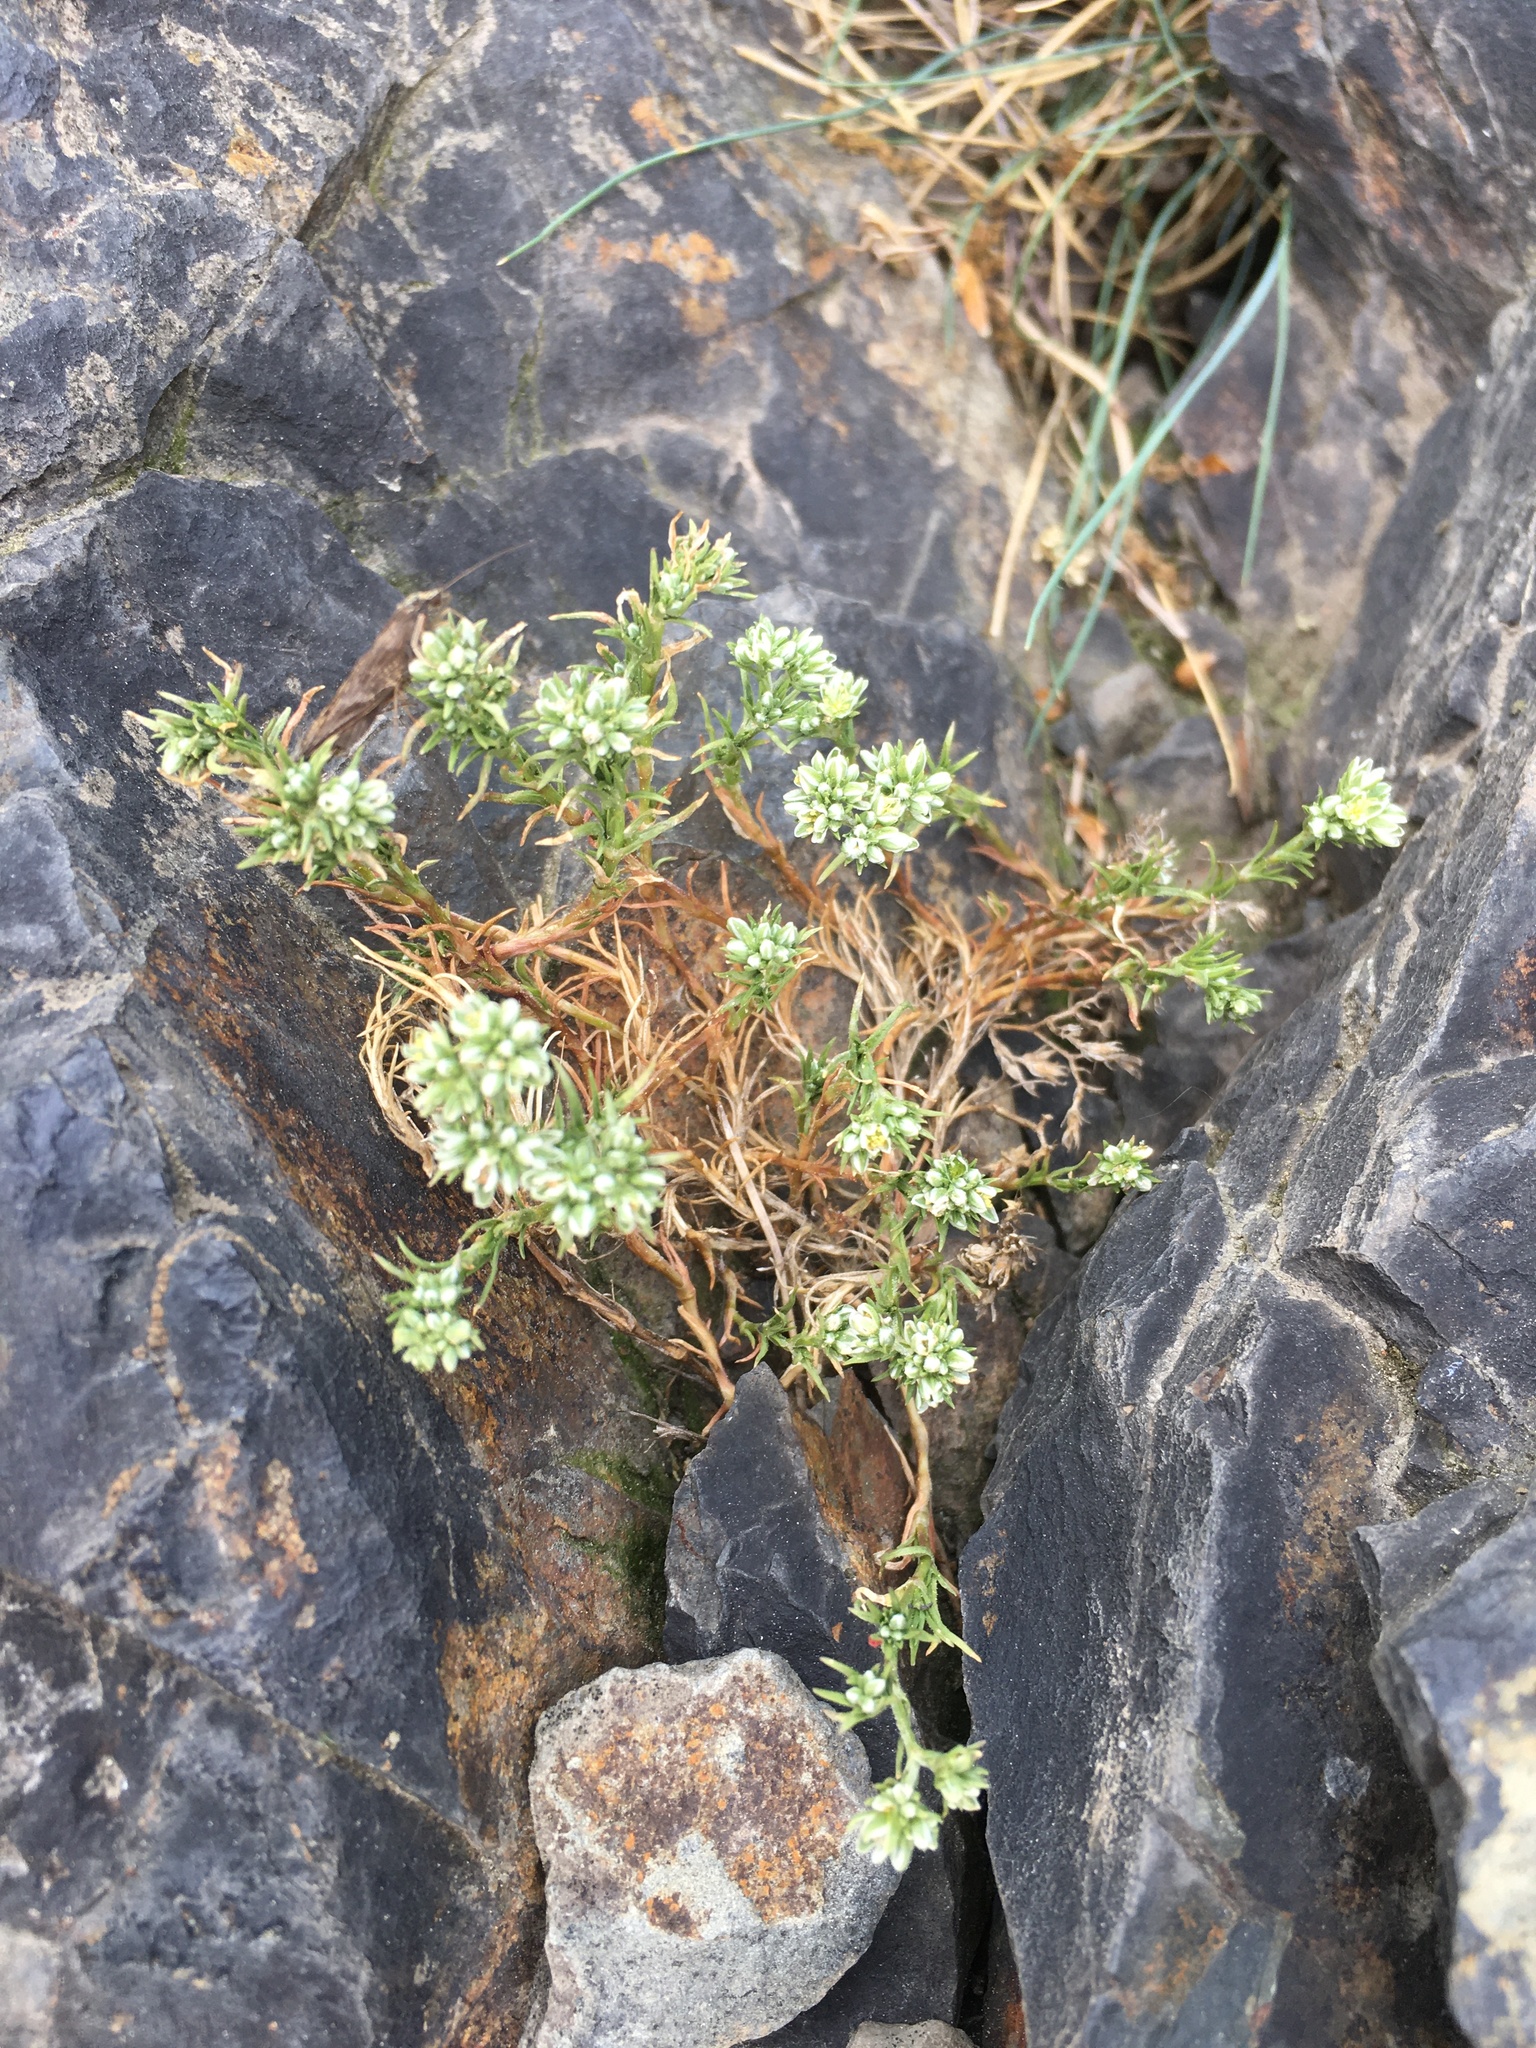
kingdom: Plantae
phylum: Tracheophyta
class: Magnoliopsida
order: Caryophyllales
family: Caryophyllaceae
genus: Scleranthus
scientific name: Scleranthus perennis
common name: Perennial knawel
